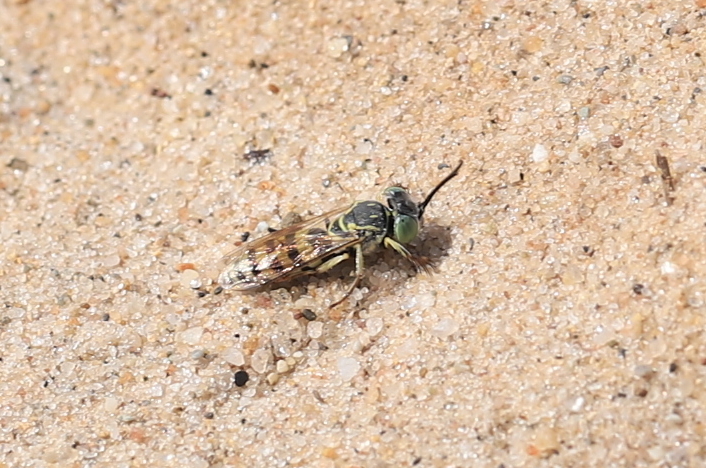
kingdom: Animalia
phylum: Arthropoda
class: Insecta
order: Hymenoptera
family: Crabronidae
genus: Microbembex
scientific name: Microbembex monodonta
